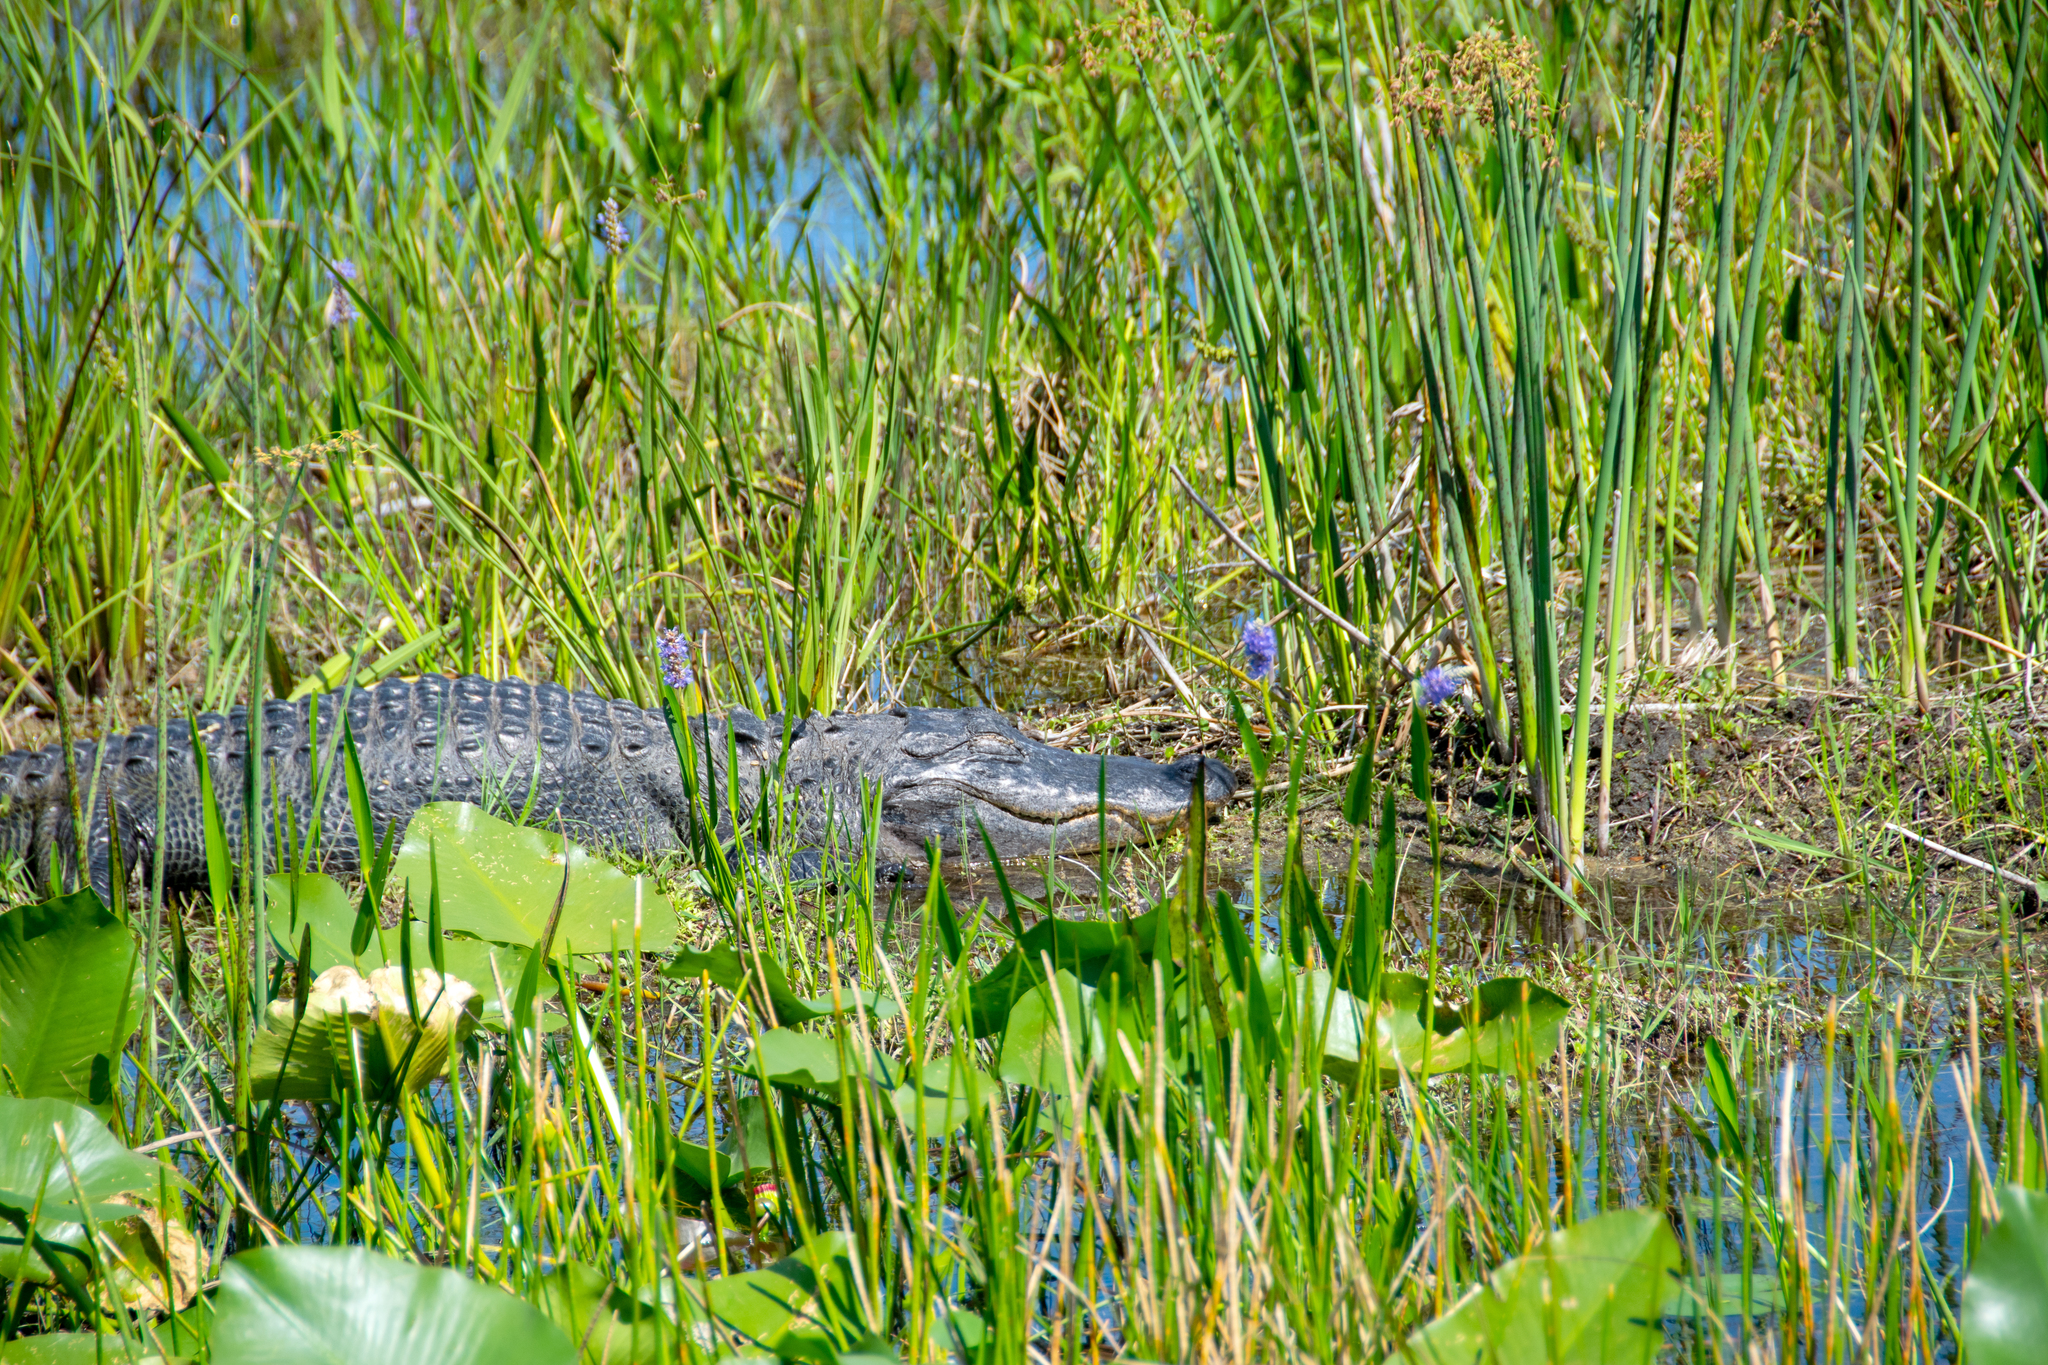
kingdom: Animalia
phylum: Chordata
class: Crocodylia
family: Alligatoridae
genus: Alligator
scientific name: Alligator mississippiensis
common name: American alligator
